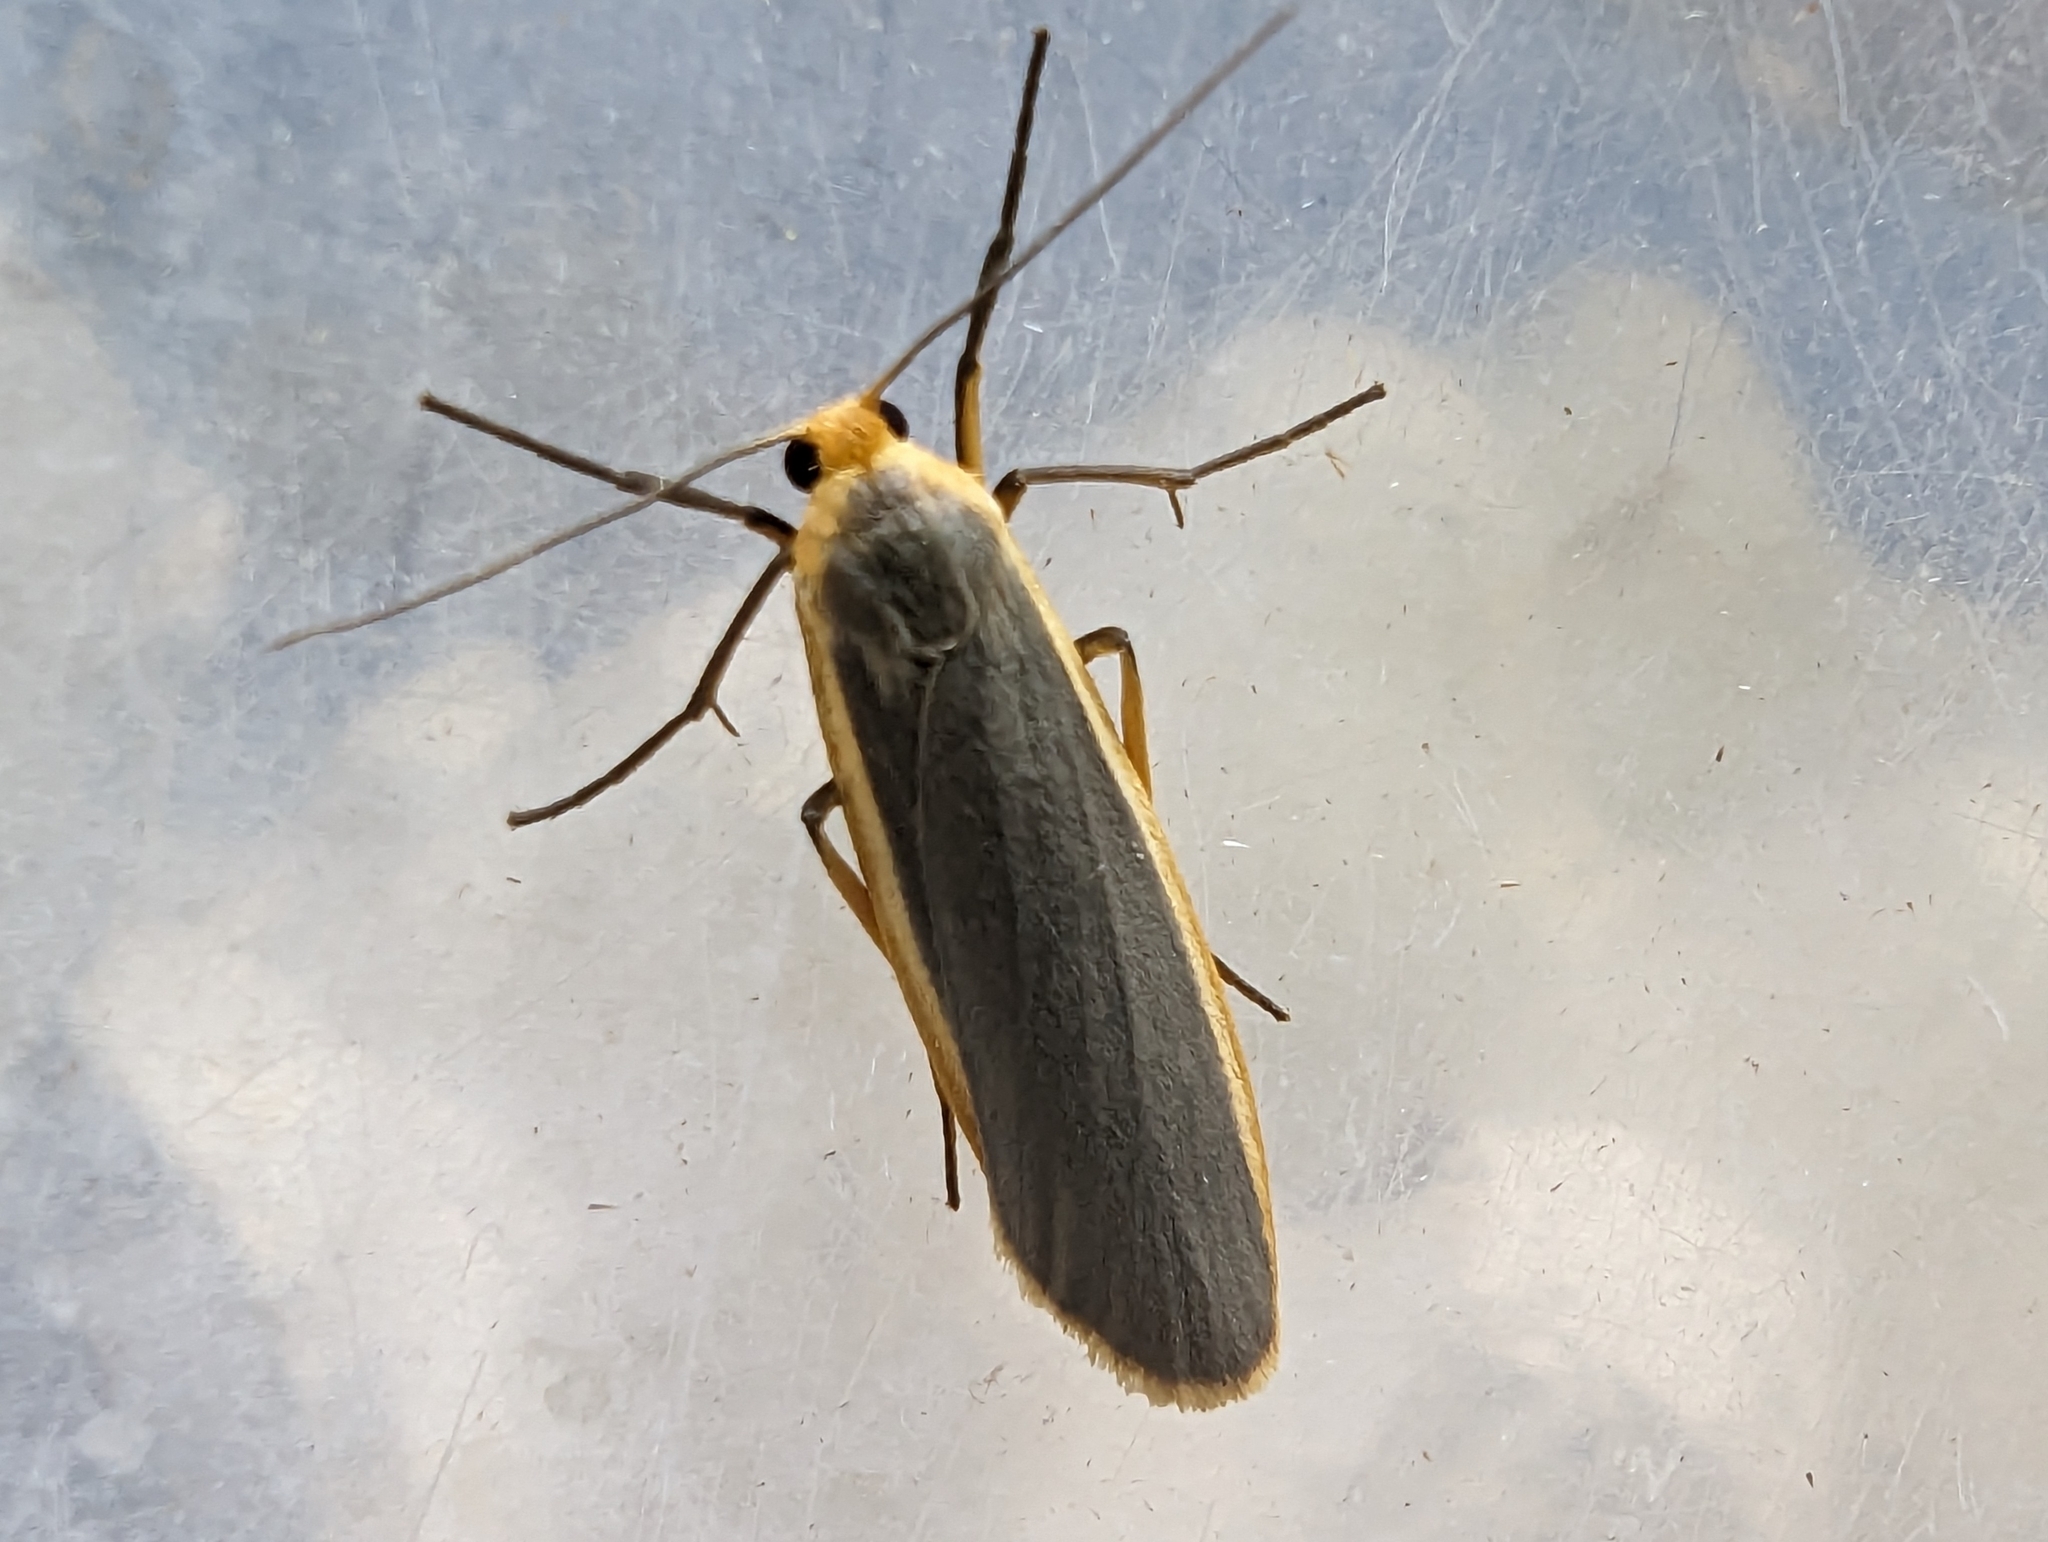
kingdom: Animalia
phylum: Arthropoda
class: Insecta
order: Lepidoptera
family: Erebidae
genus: Nyea
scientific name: Nyea lurideola
